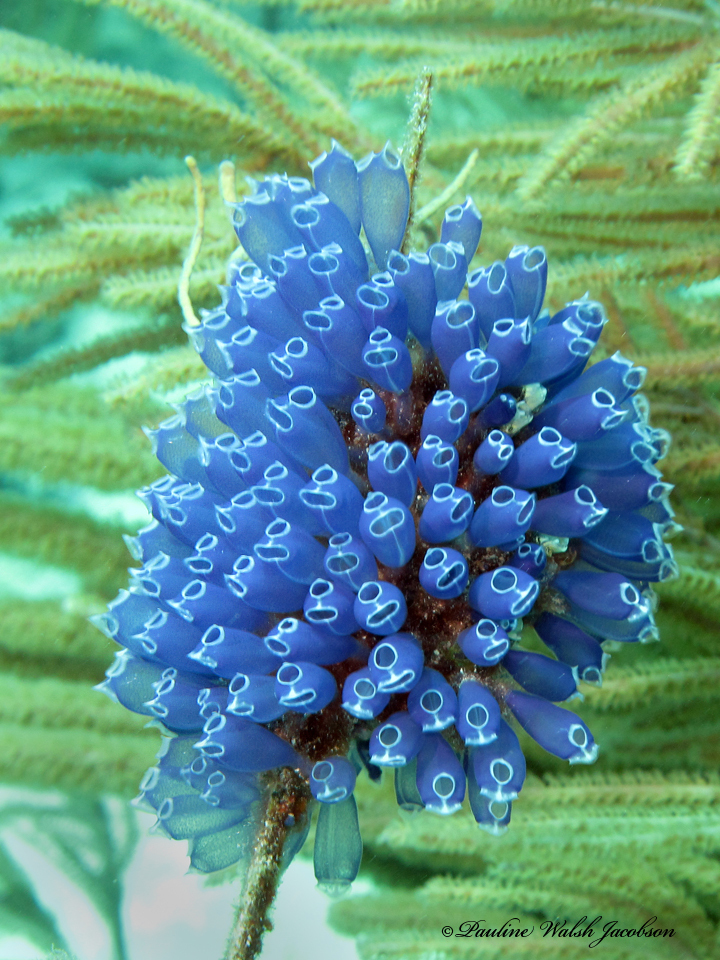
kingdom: Animalia
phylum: Chordata
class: Ascidiacea
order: Aplousobranchia
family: Clavelinidae
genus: Clavelina
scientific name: Clavelina puertosecensis
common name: Blue bell tunicate
